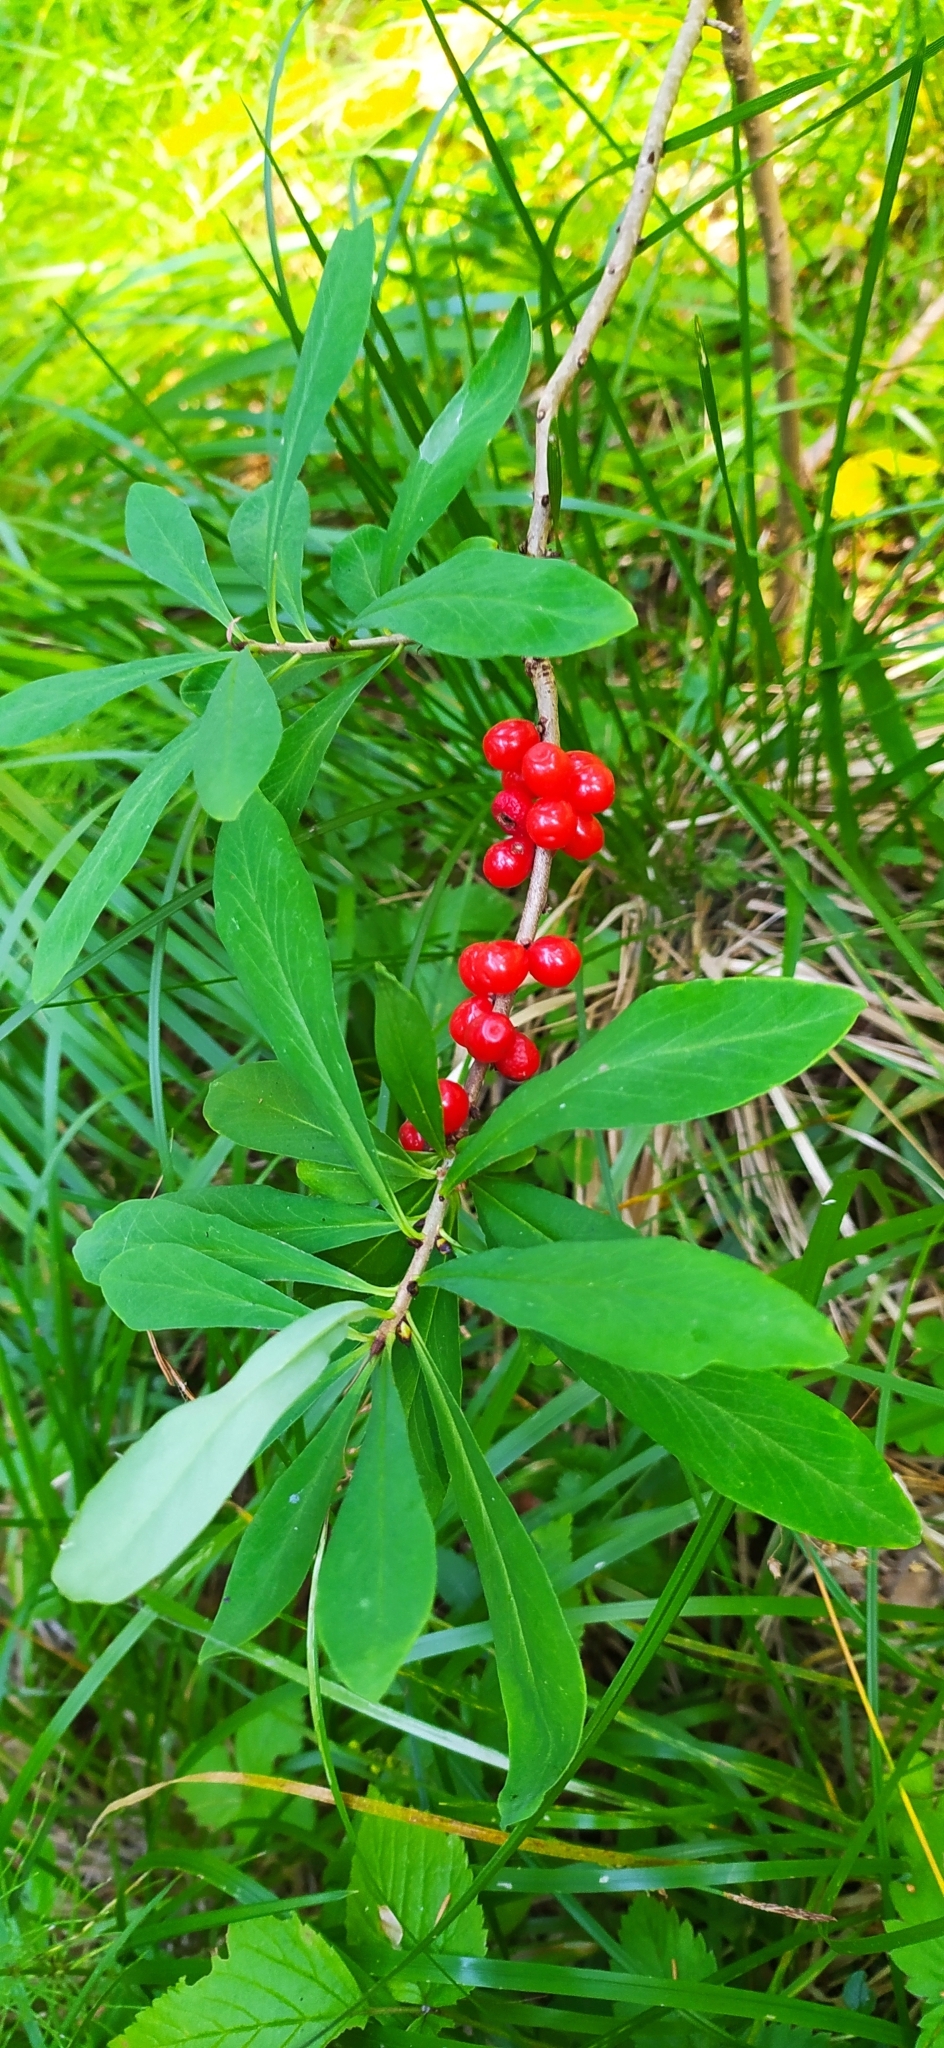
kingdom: Plantae
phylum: Tracheophyta
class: Magnoliopsida
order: Malvales
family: Thymelaeaceae
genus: Daphne
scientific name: Daphne mezereum
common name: Mezereon
